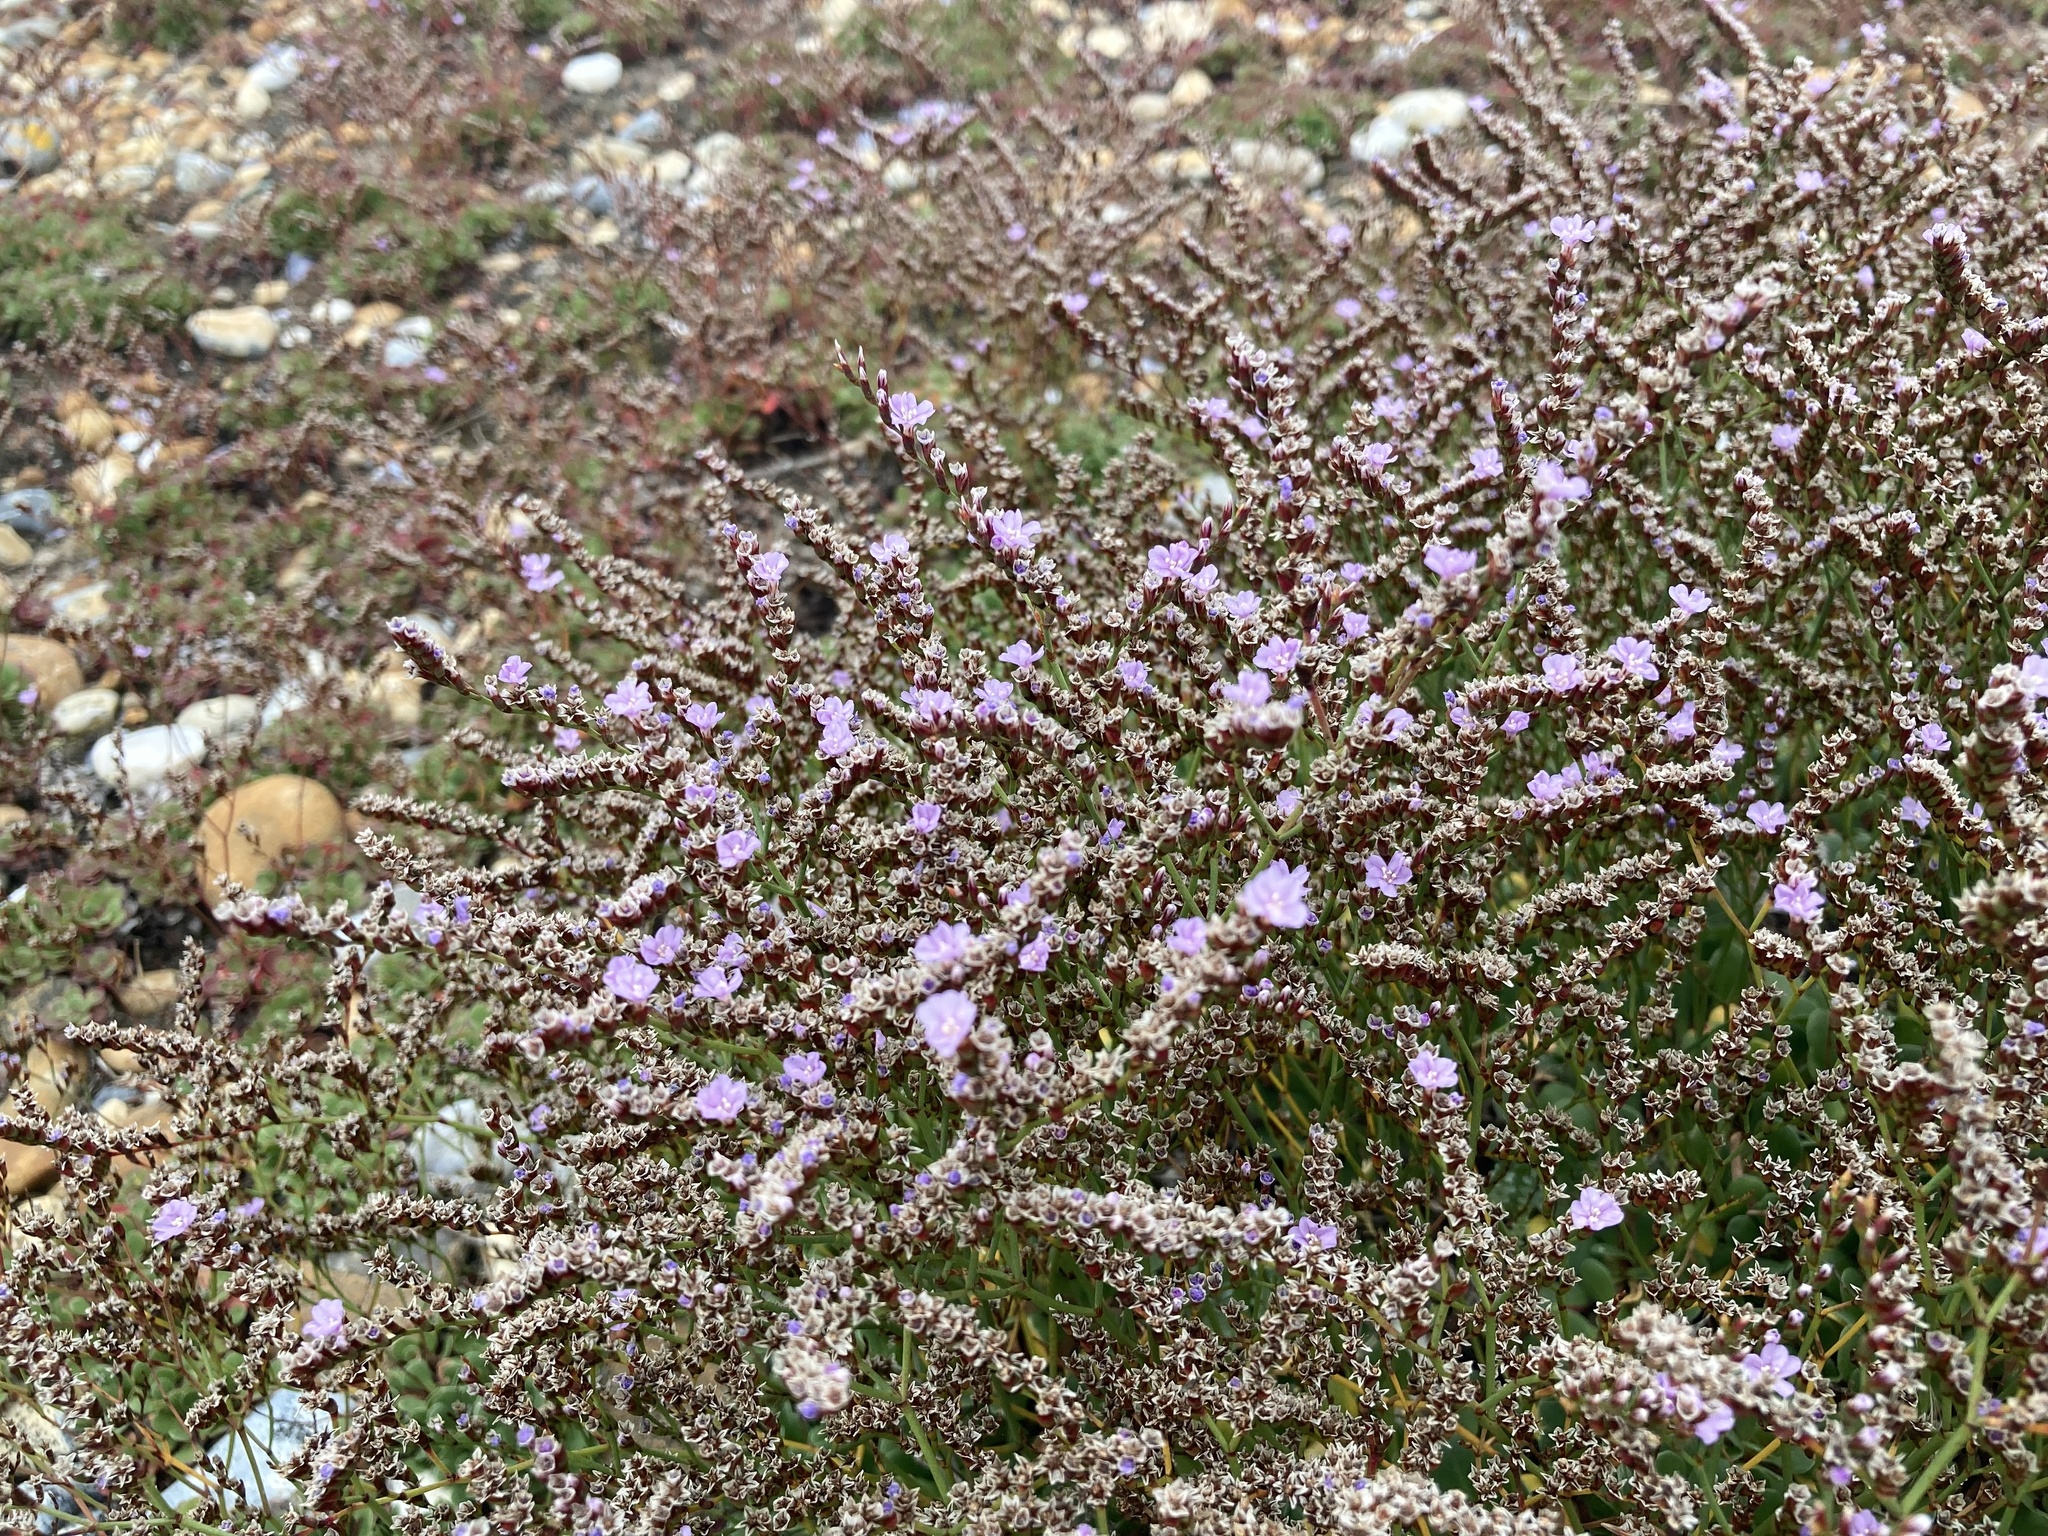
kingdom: Plantae
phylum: Tracheophyta
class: Magnoliopsida
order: Caryophyllales
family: Plumbaginaceae
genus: Limonium
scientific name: Limonium hyblaeum
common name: Rottingdean sea-lavender
